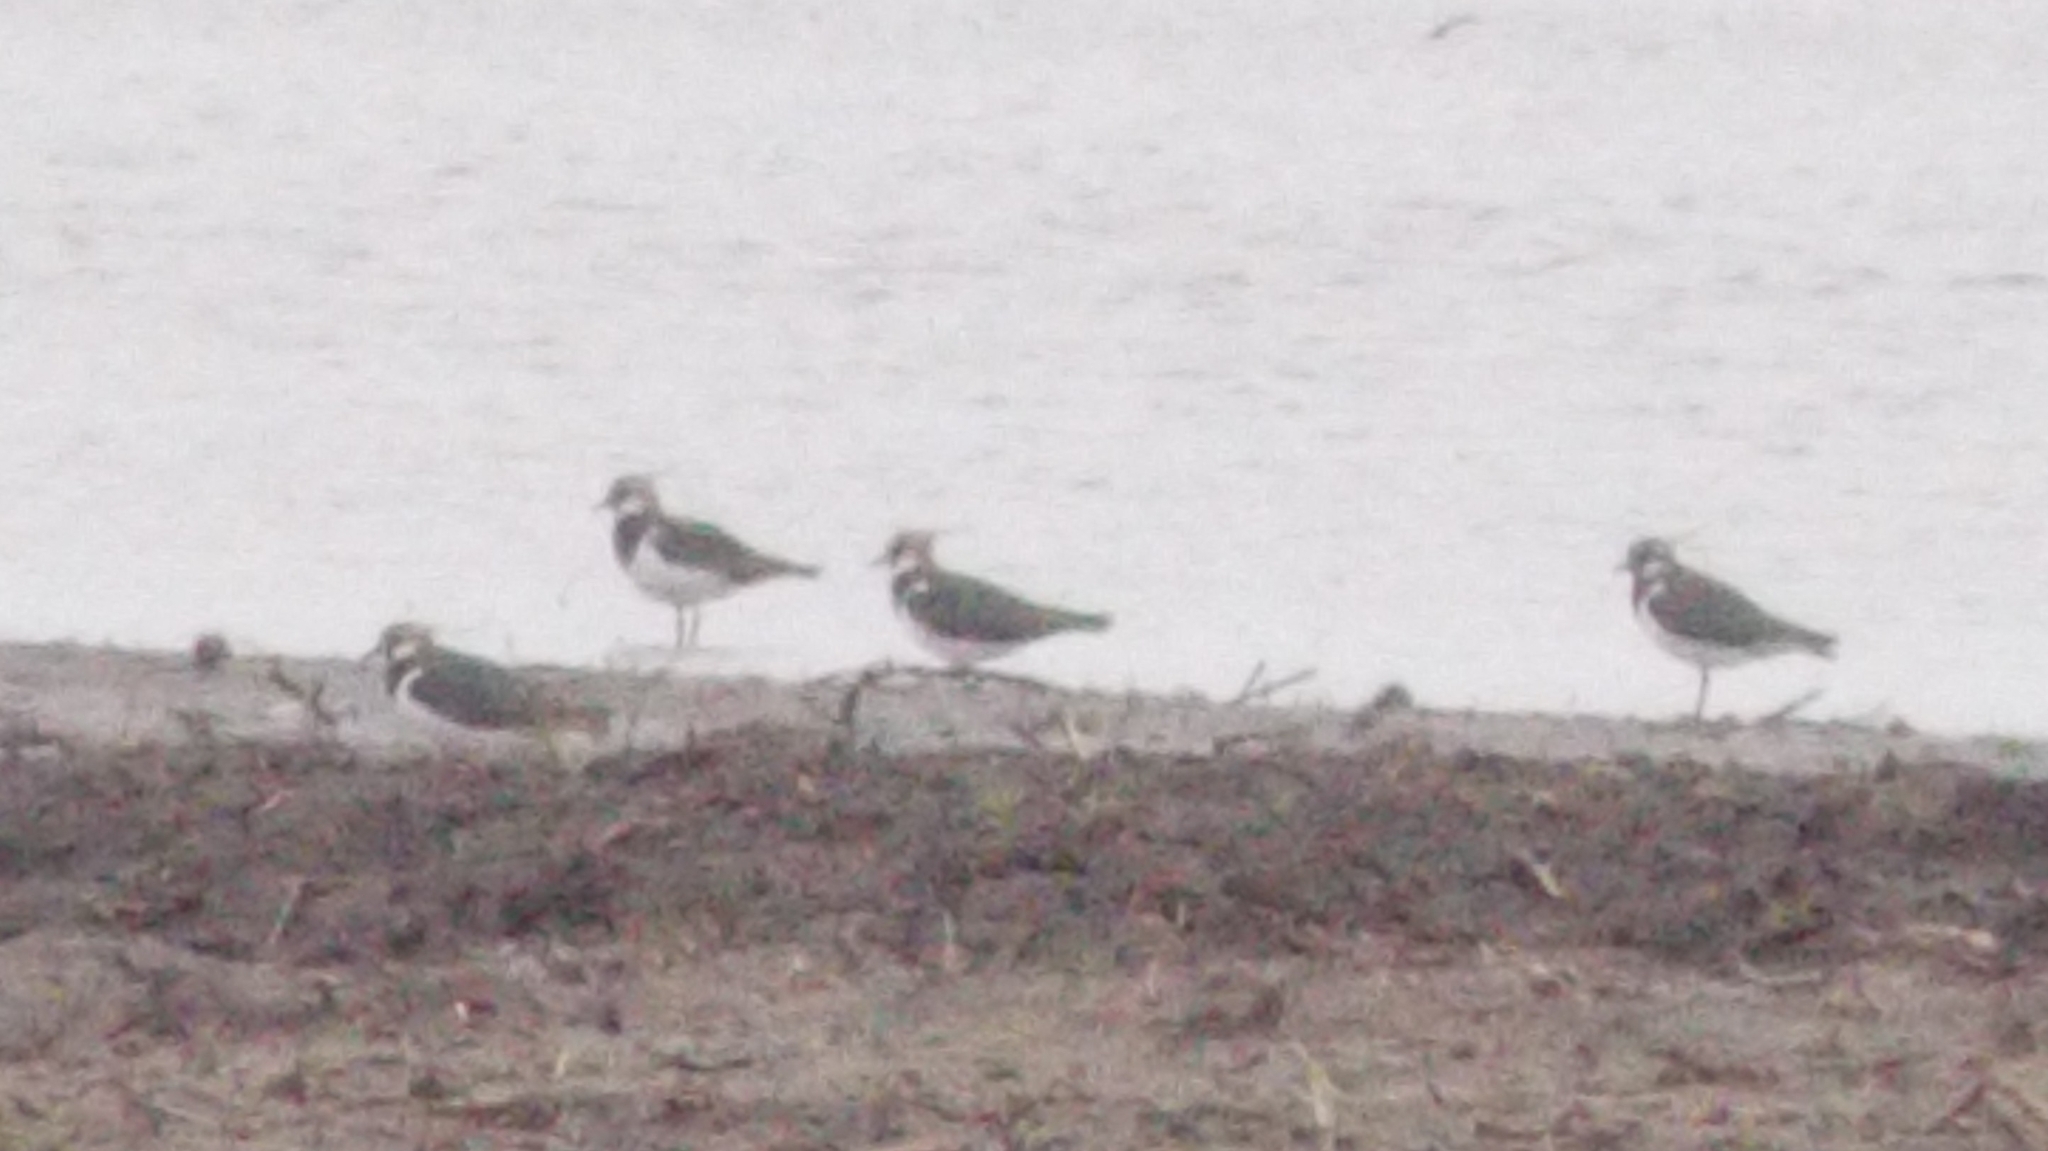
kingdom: Animalia
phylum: Chordata
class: Aves
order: Charadriiformes
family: Charadriidae
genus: Vanellus
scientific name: Vanellus vanellus
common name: Northern lapwing
